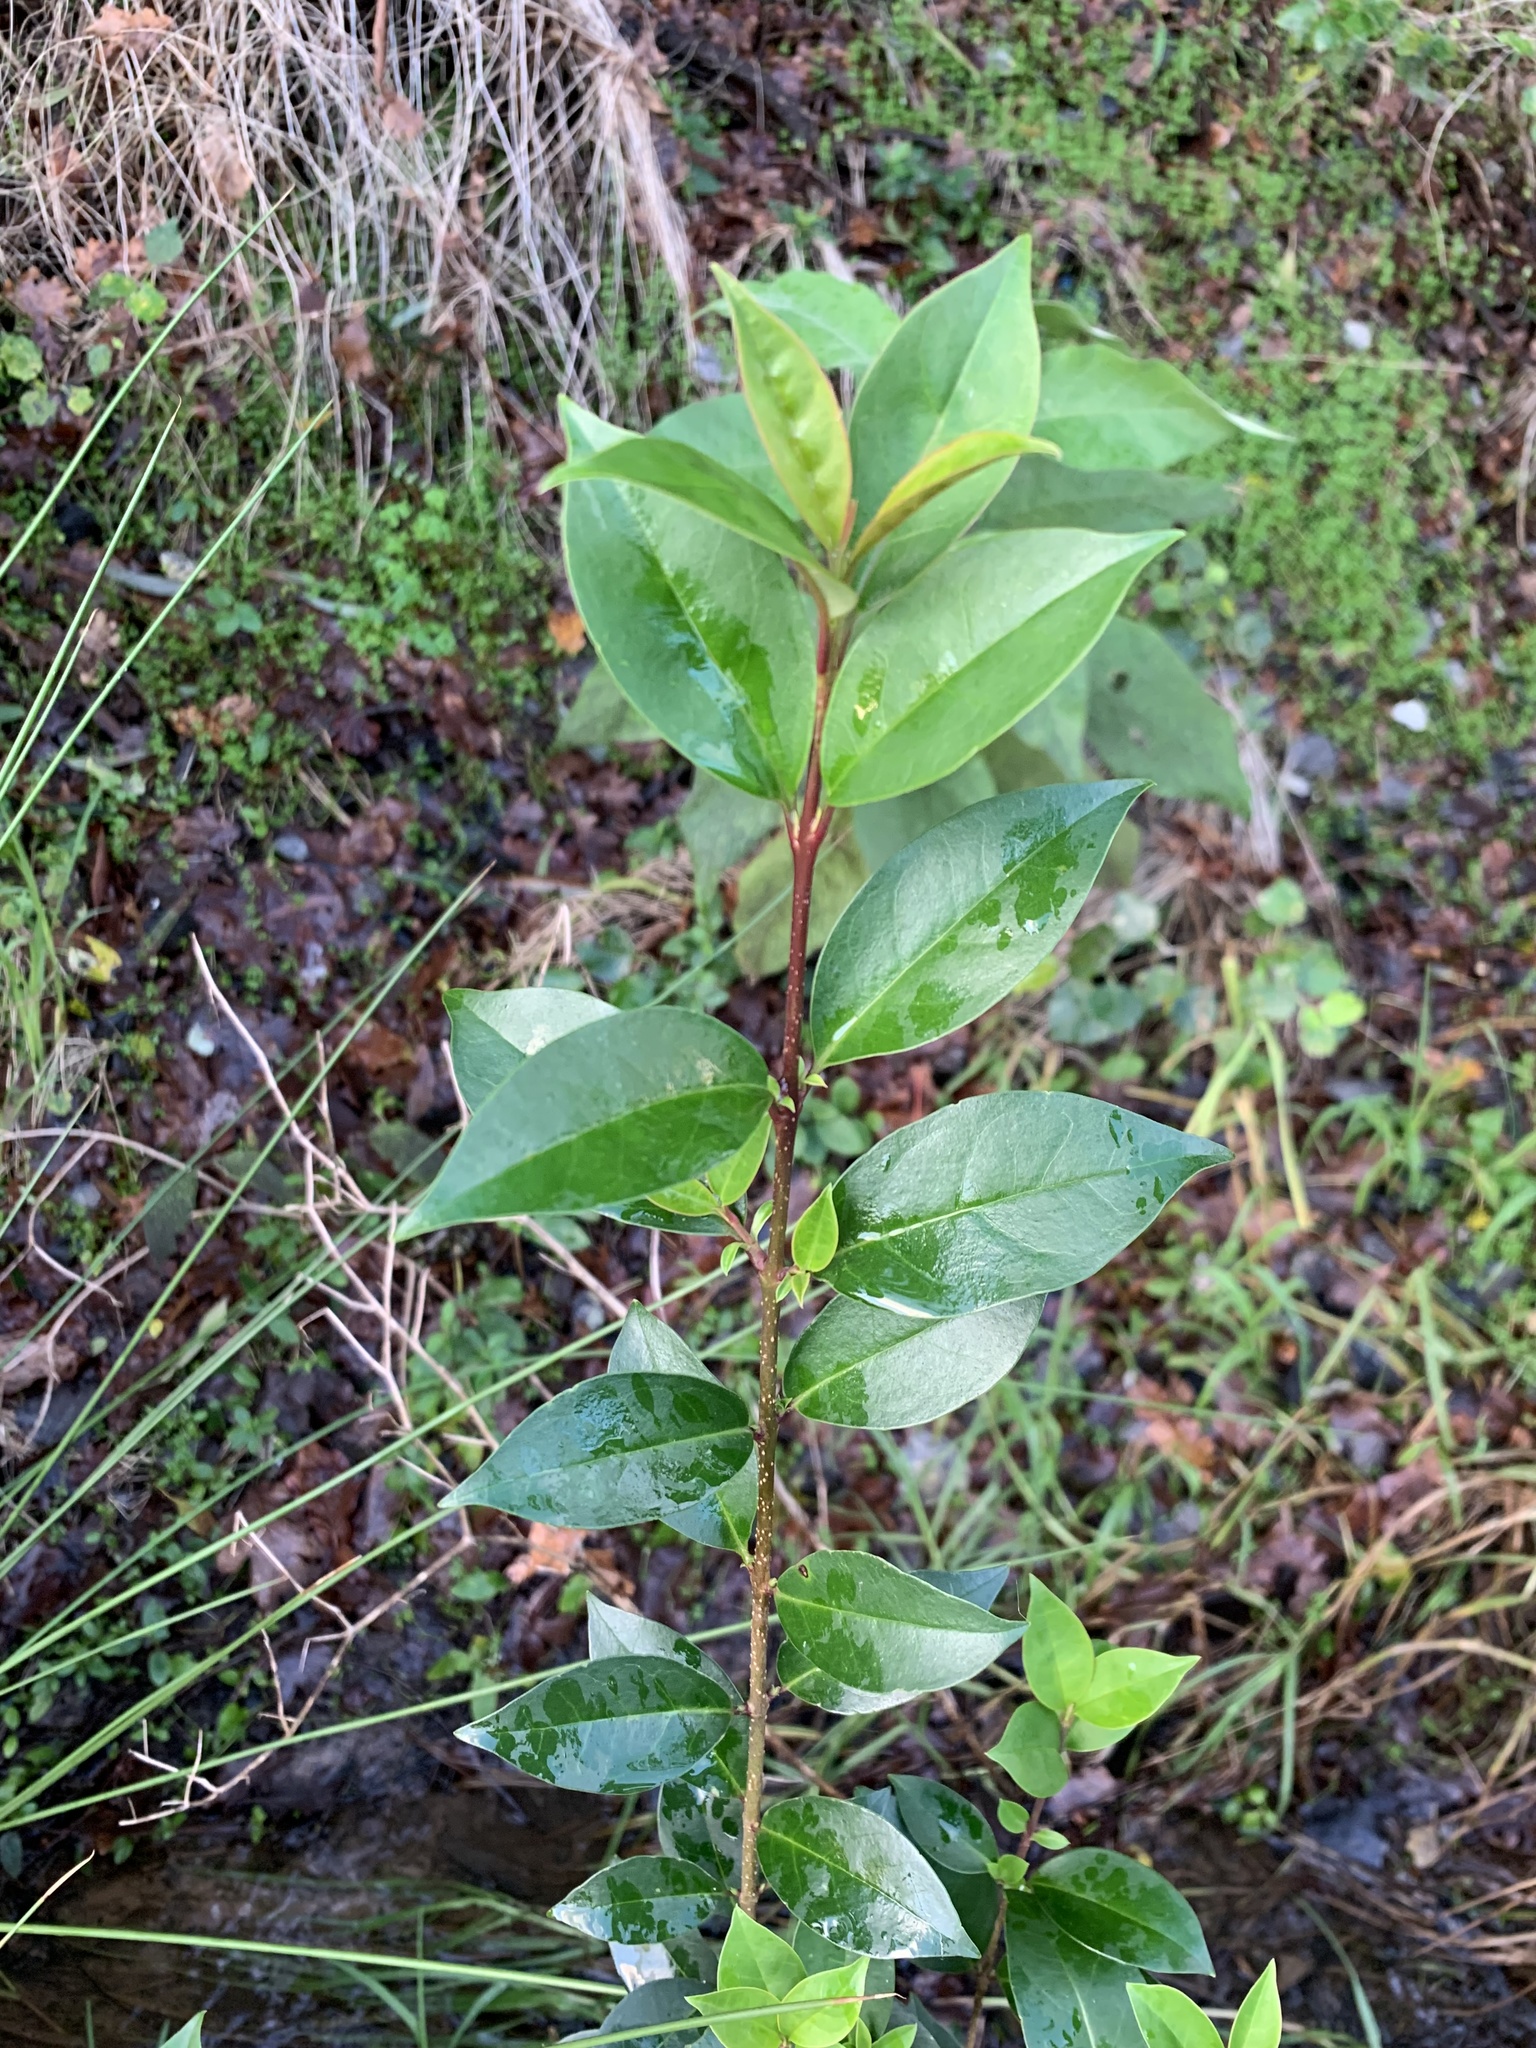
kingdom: Plantae
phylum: Tracheophyta
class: Magnoliopsida
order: Lamiales
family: Oleaceae
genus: Ligustrum
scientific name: Ligustrum lucidum
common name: Glossy privet
